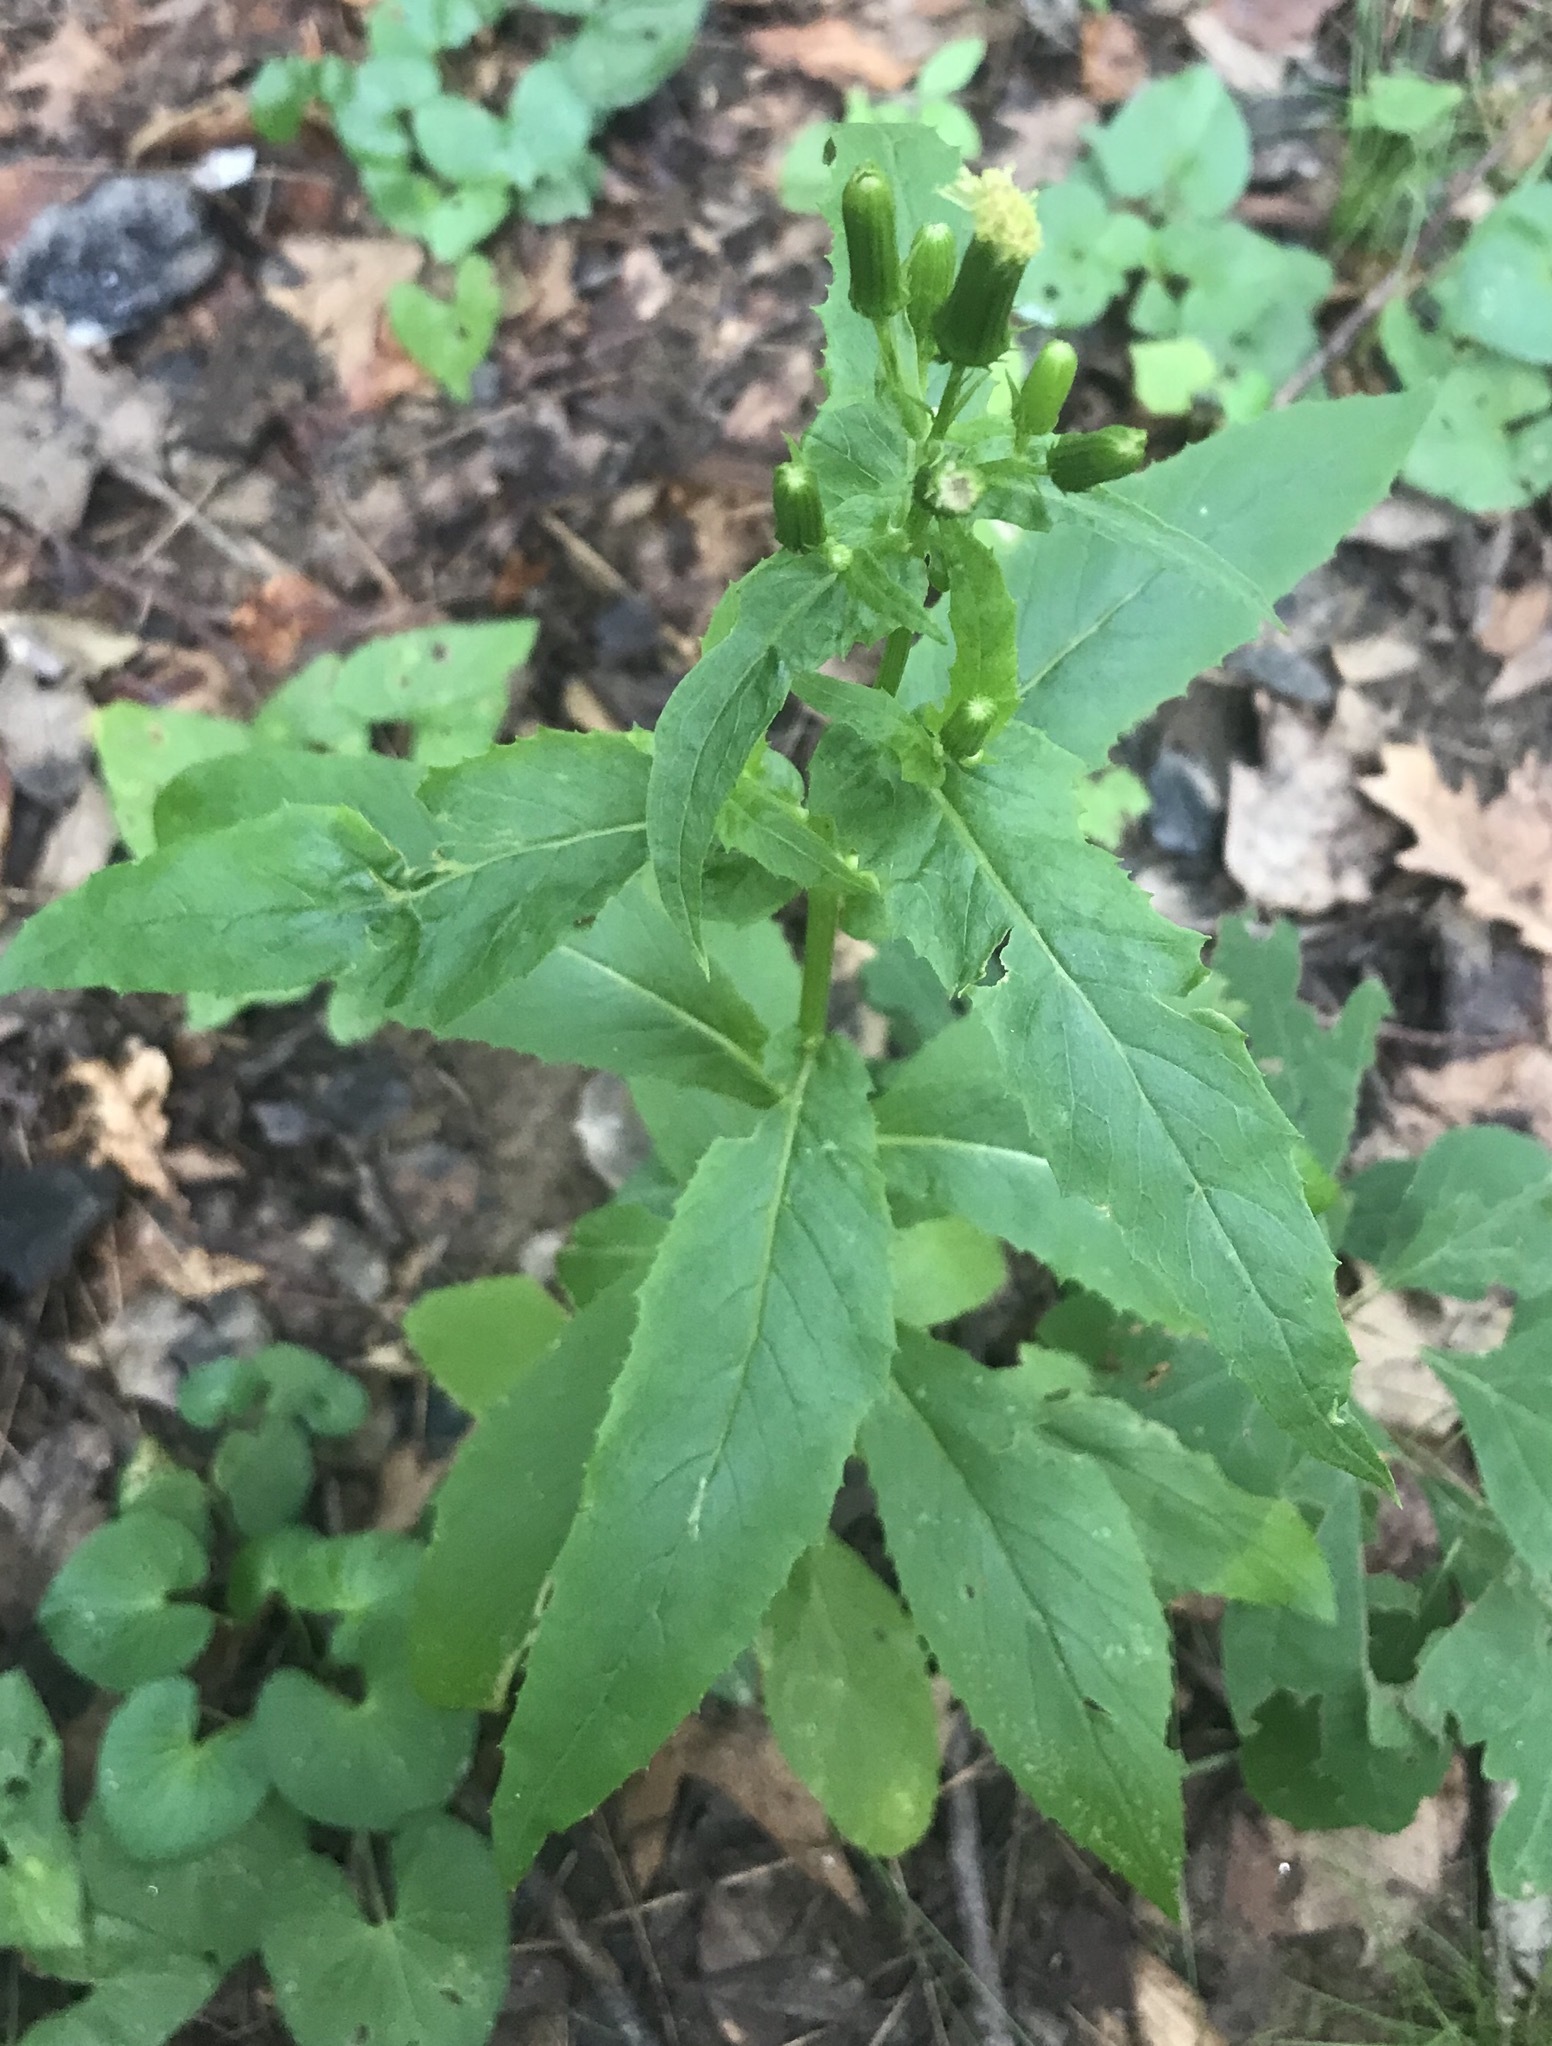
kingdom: Plantae
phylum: Tracheophyta
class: Magnoliopsida
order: Asterales
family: Asteraceae
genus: Erechtites
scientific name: Erechtites hieraciifolius
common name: American burnweed
